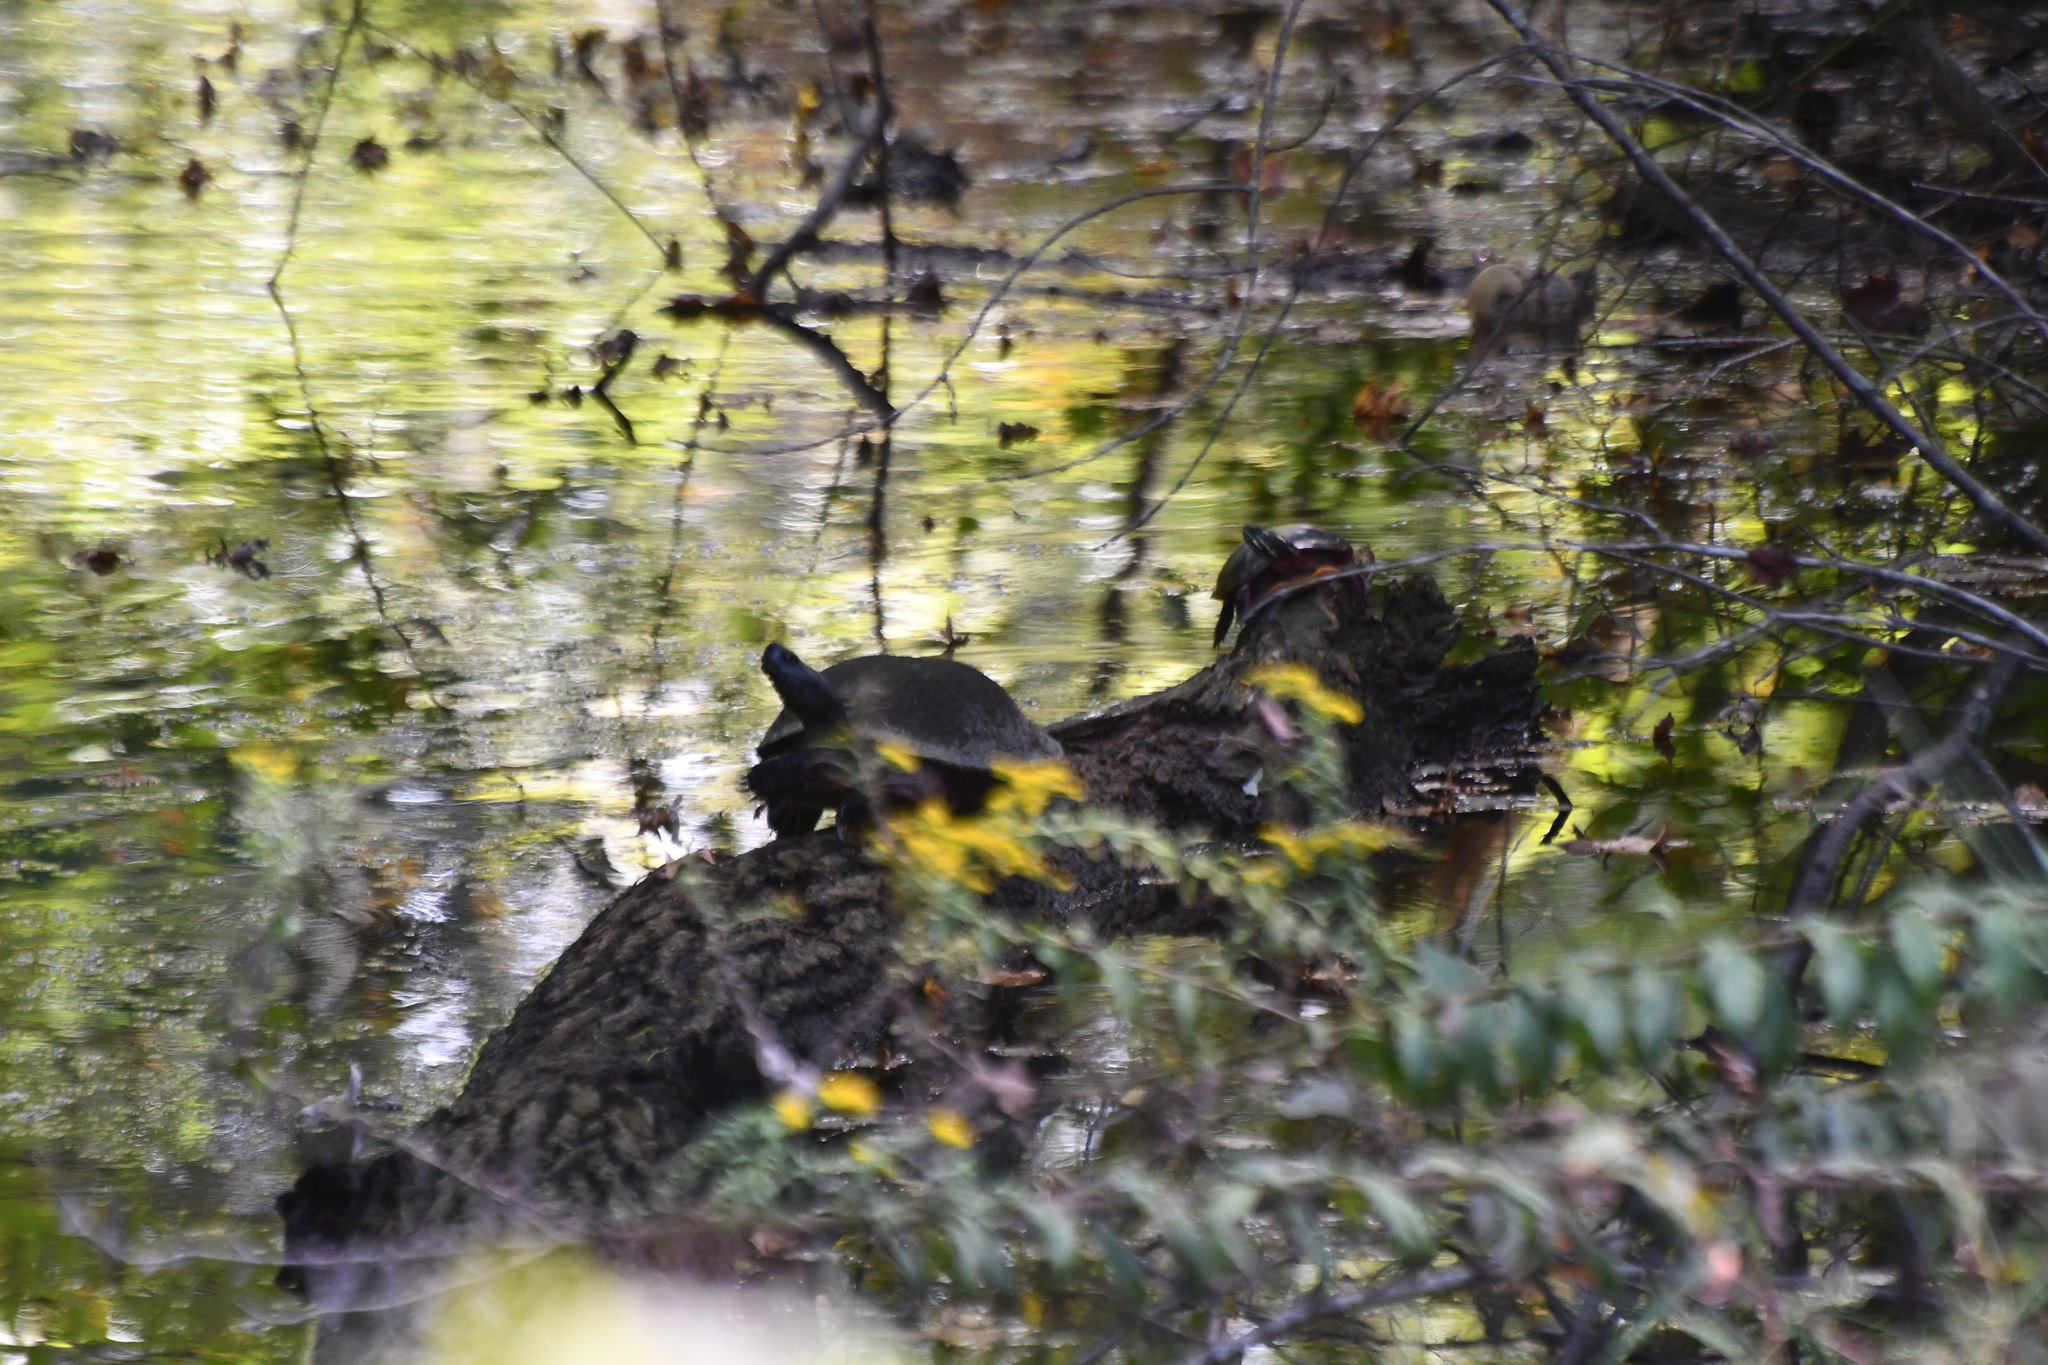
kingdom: Animalia
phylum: Chordata
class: Testudines
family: Emydidae
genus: Pseudemys
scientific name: Pseudemys rubriventris
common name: American red-bellied turtle
